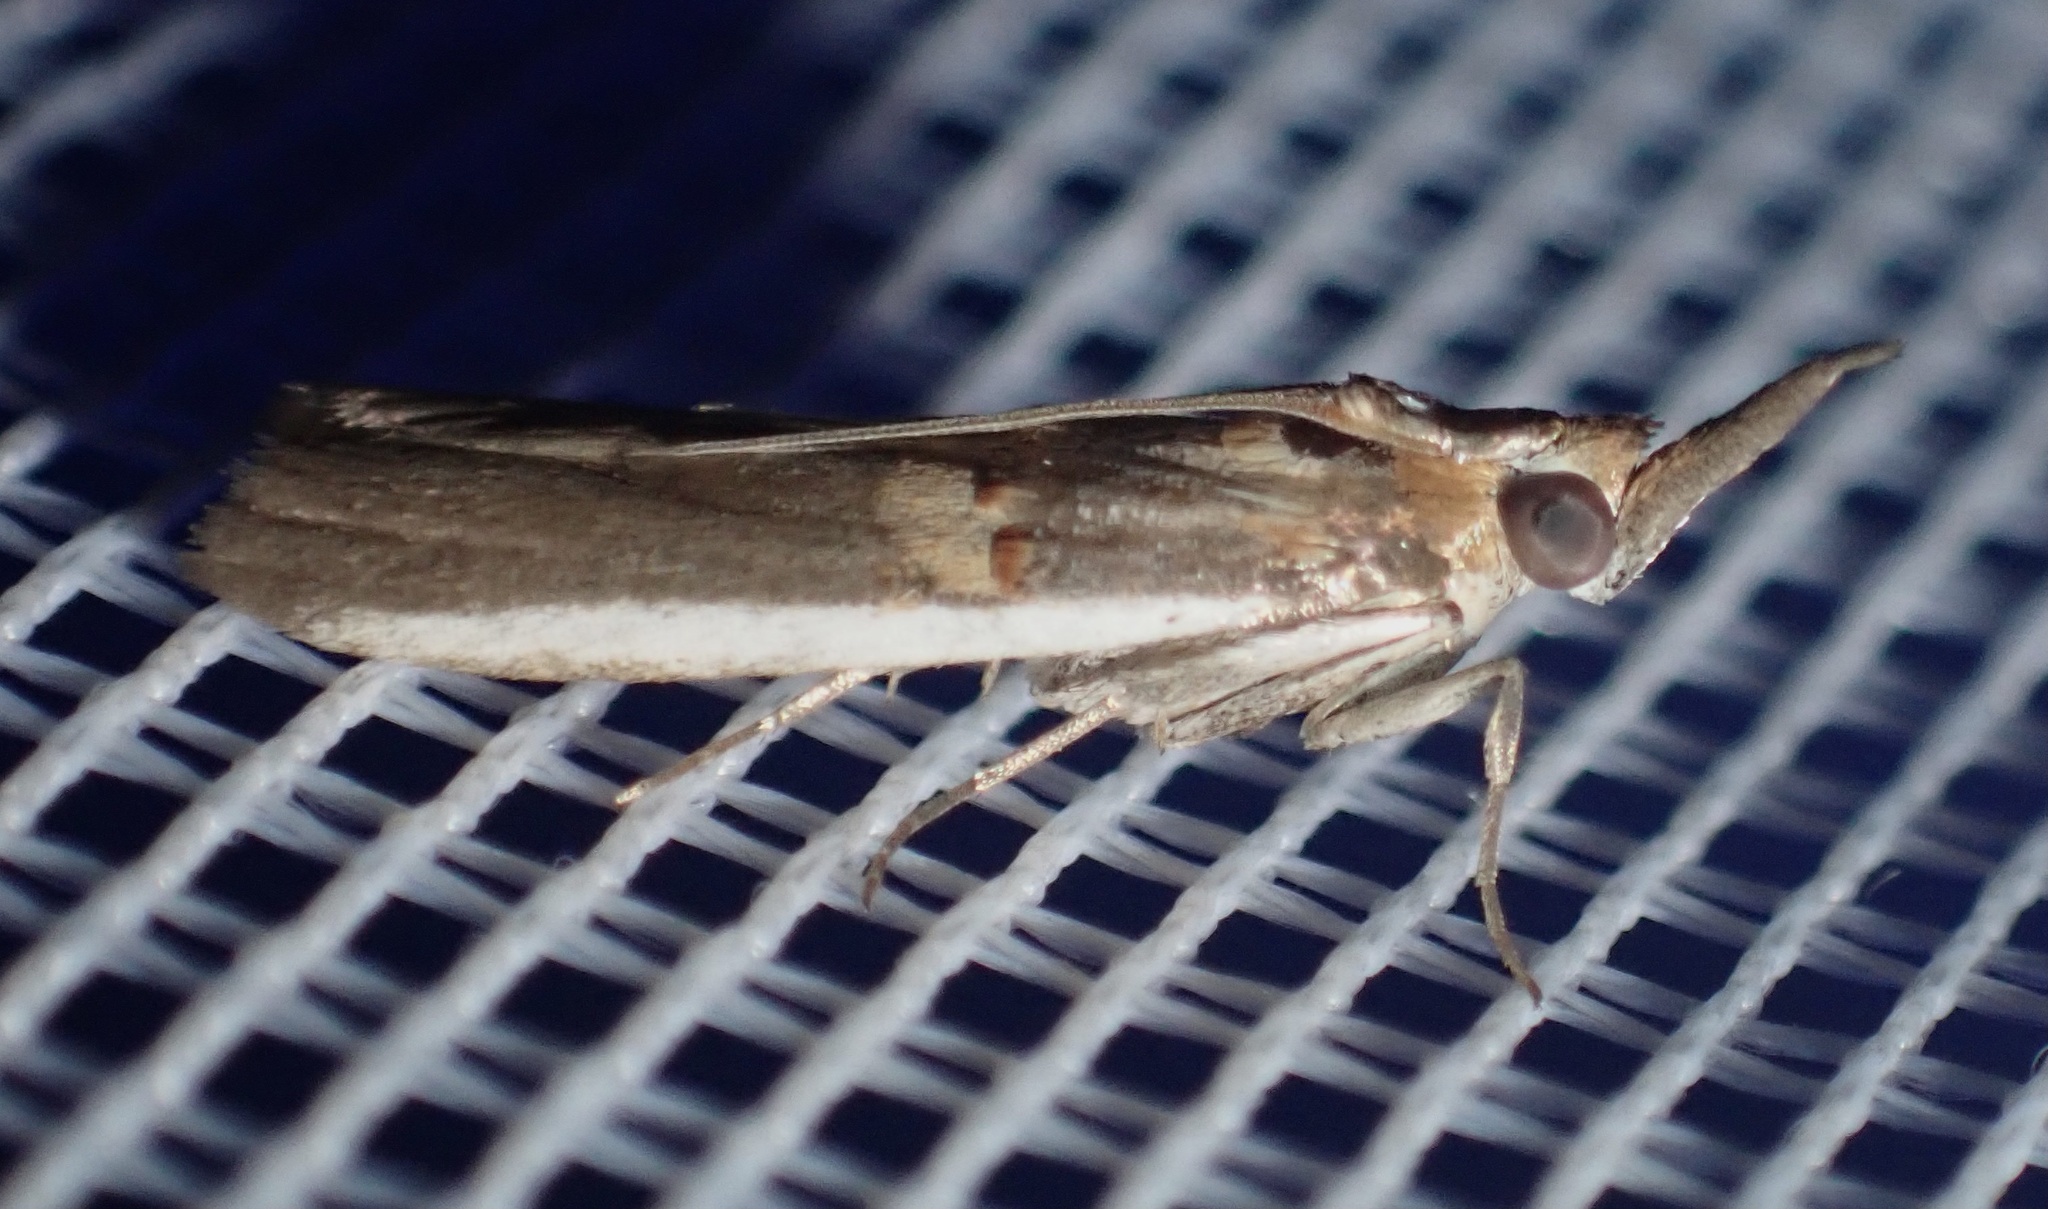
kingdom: Animalia
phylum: Arthropoda
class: Insecta
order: Lepidoptera
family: Pyralidae
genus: Etiella
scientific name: Etiella zinckenella
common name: Gold-banded etiella moth
